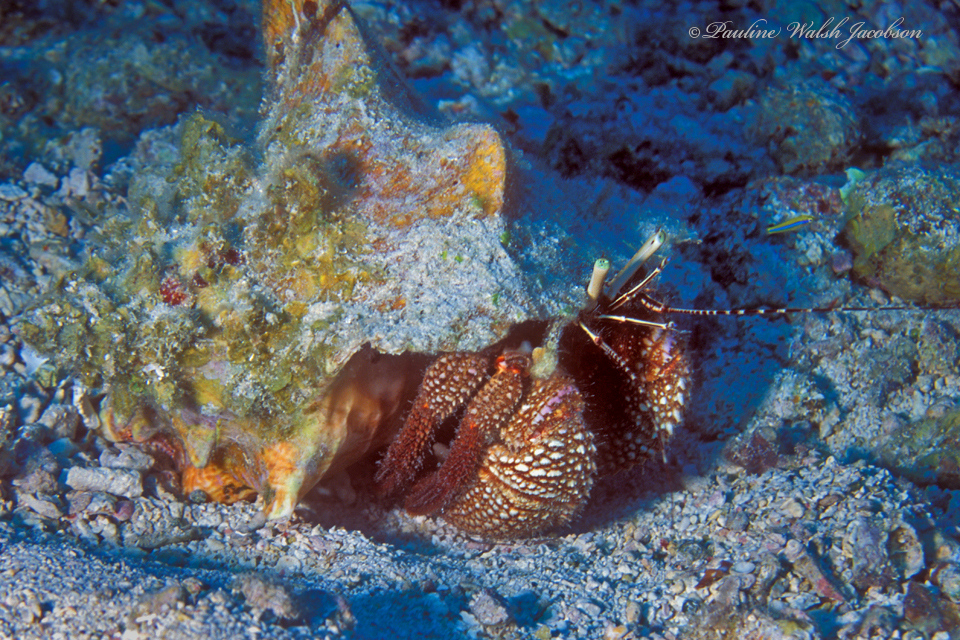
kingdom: Animalia
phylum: Arthropoda
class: Malacostraca
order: Decapoda
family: Diogenidae
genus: Petrochirus
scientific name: Petrochirus diogenes
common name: Giant hermit crab
